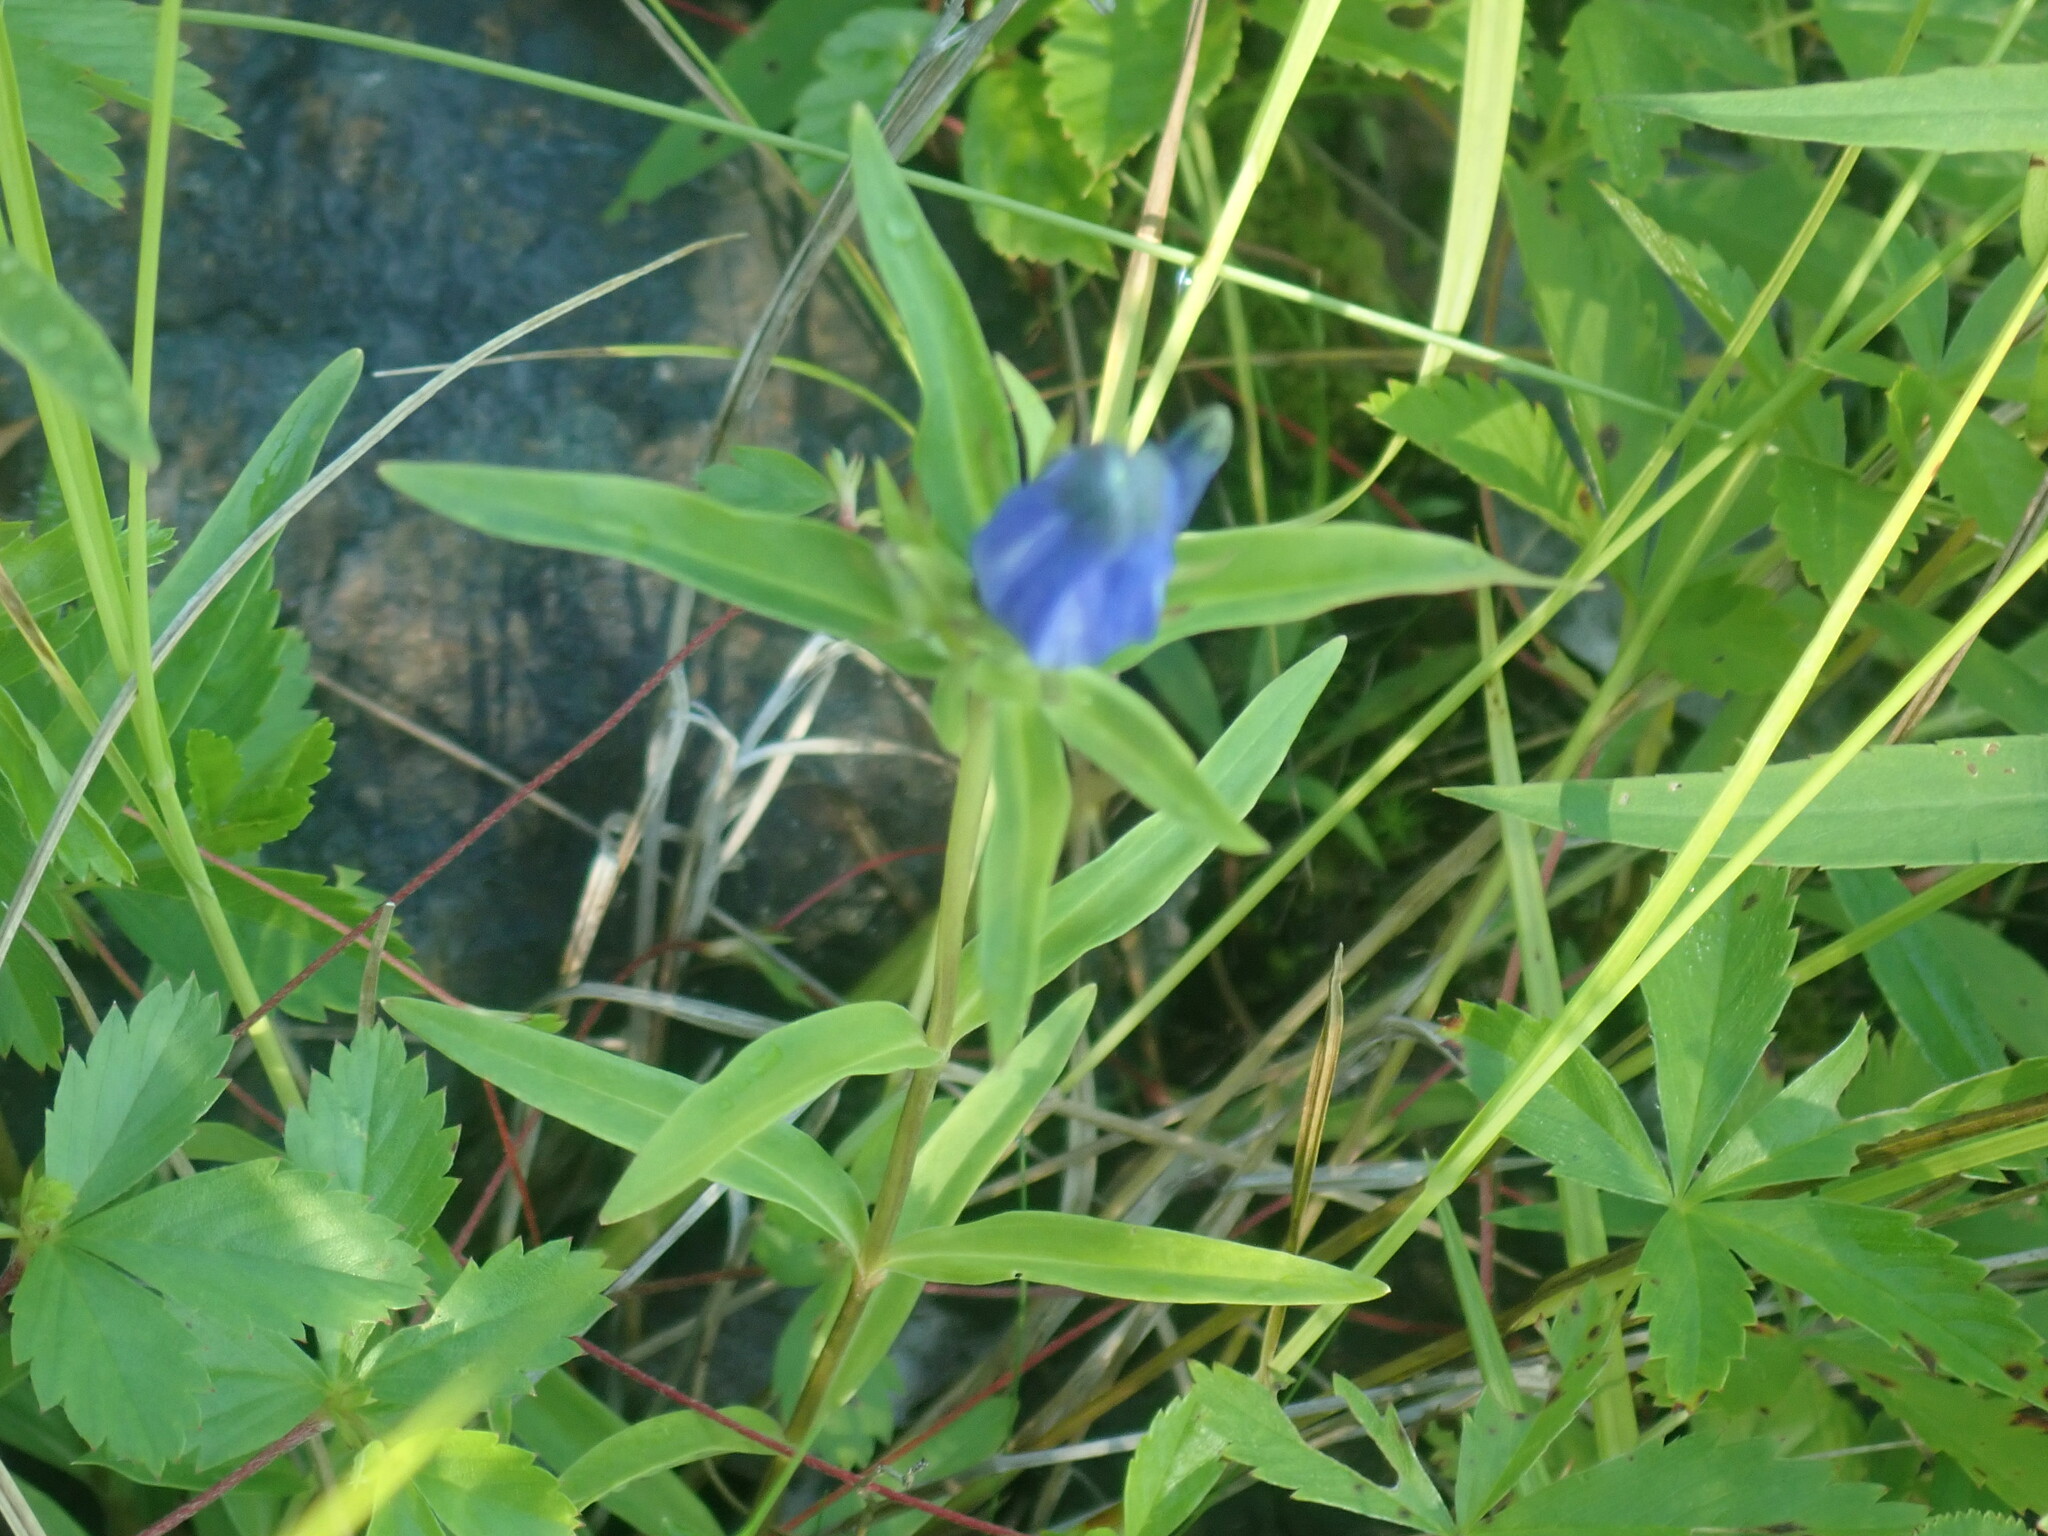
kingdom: Plantae
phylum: Tracheophyta
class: Magnoliopsida
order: Gentianales
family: Gentianaceae
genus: Gentiana
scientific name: Gentiana linearis
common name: Bastard gentian
